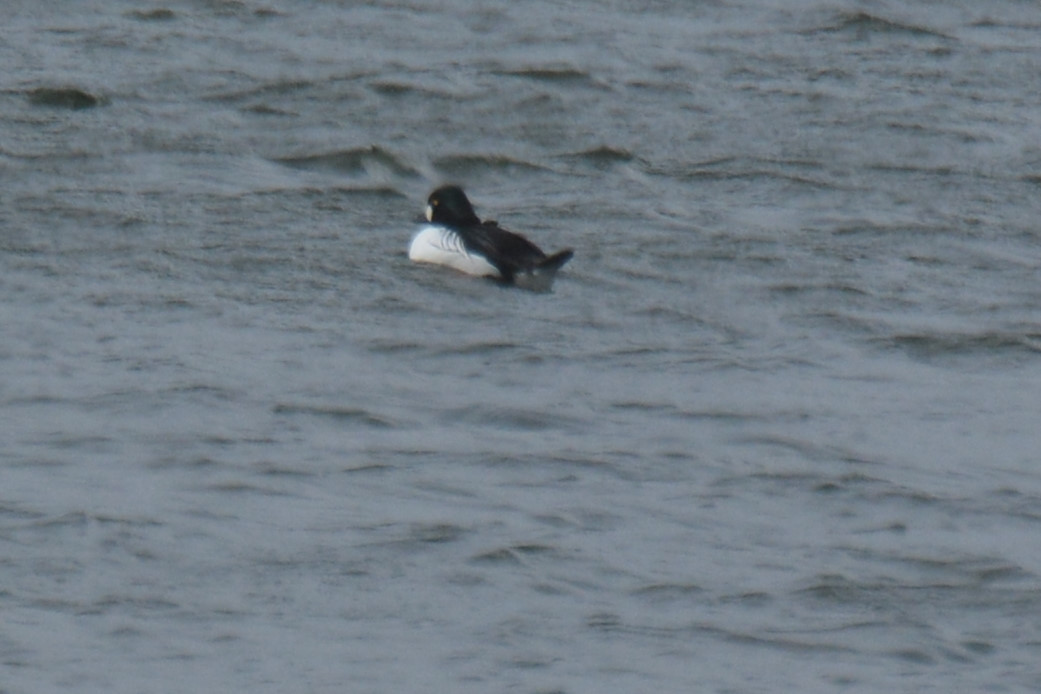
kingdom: Animalia
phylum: Chordata
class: Aves
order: Anseriformes
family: Anatidae
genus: Bucephala
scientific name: Bucephala clangula
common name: Common goldeneye
